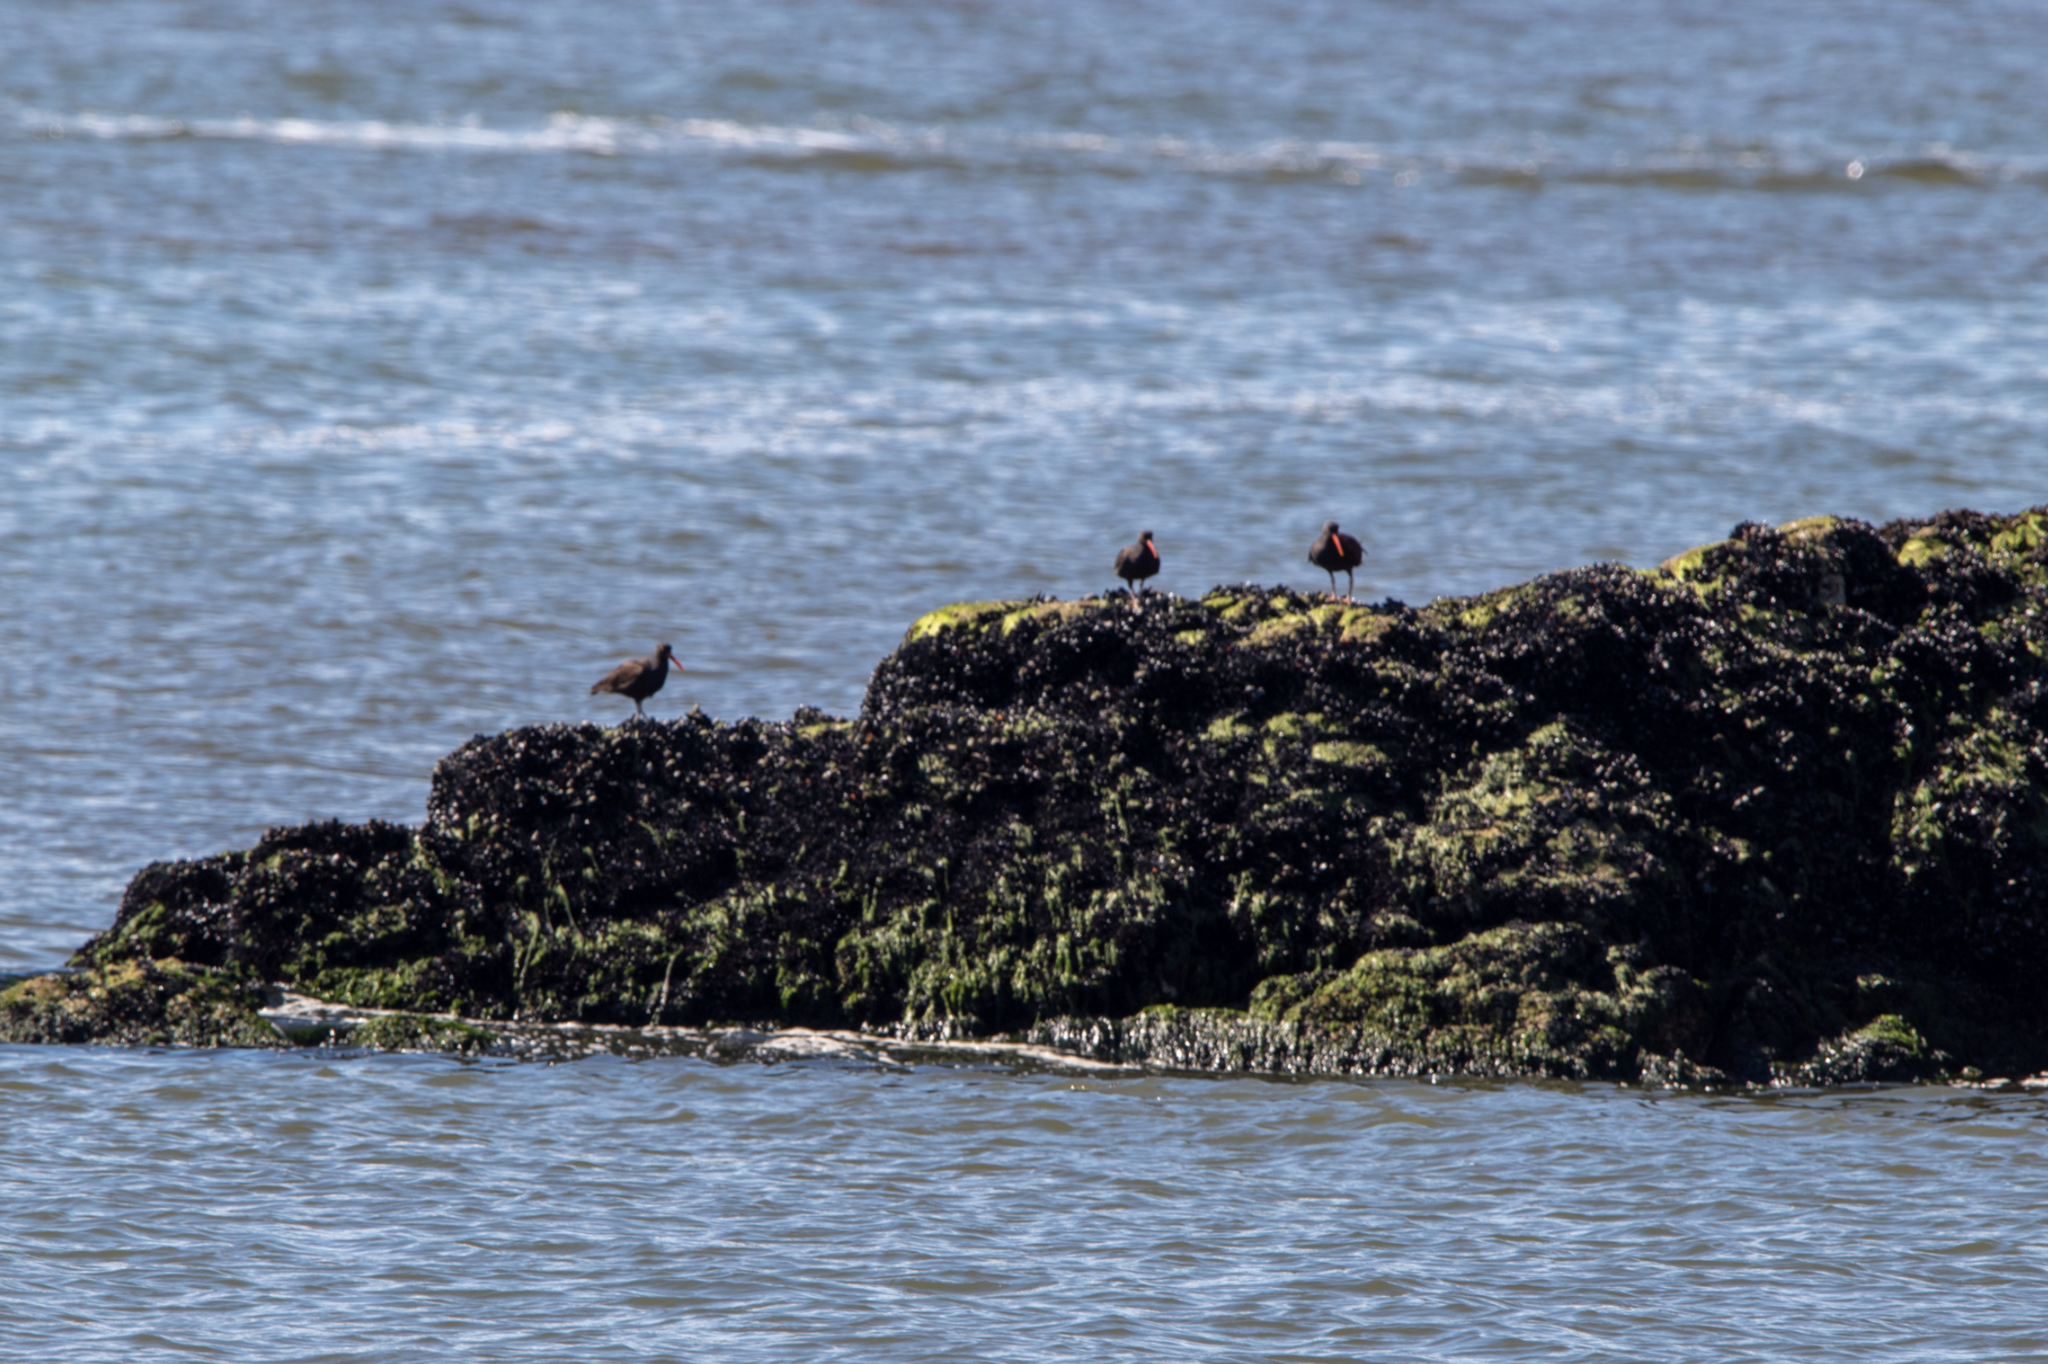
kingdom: Animalia
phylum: Chordata
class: Aves
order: Charadriiformes
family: Haematopodidae
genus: Haematopus
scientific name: Haematopus bachmani
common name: Black oystercatcher
